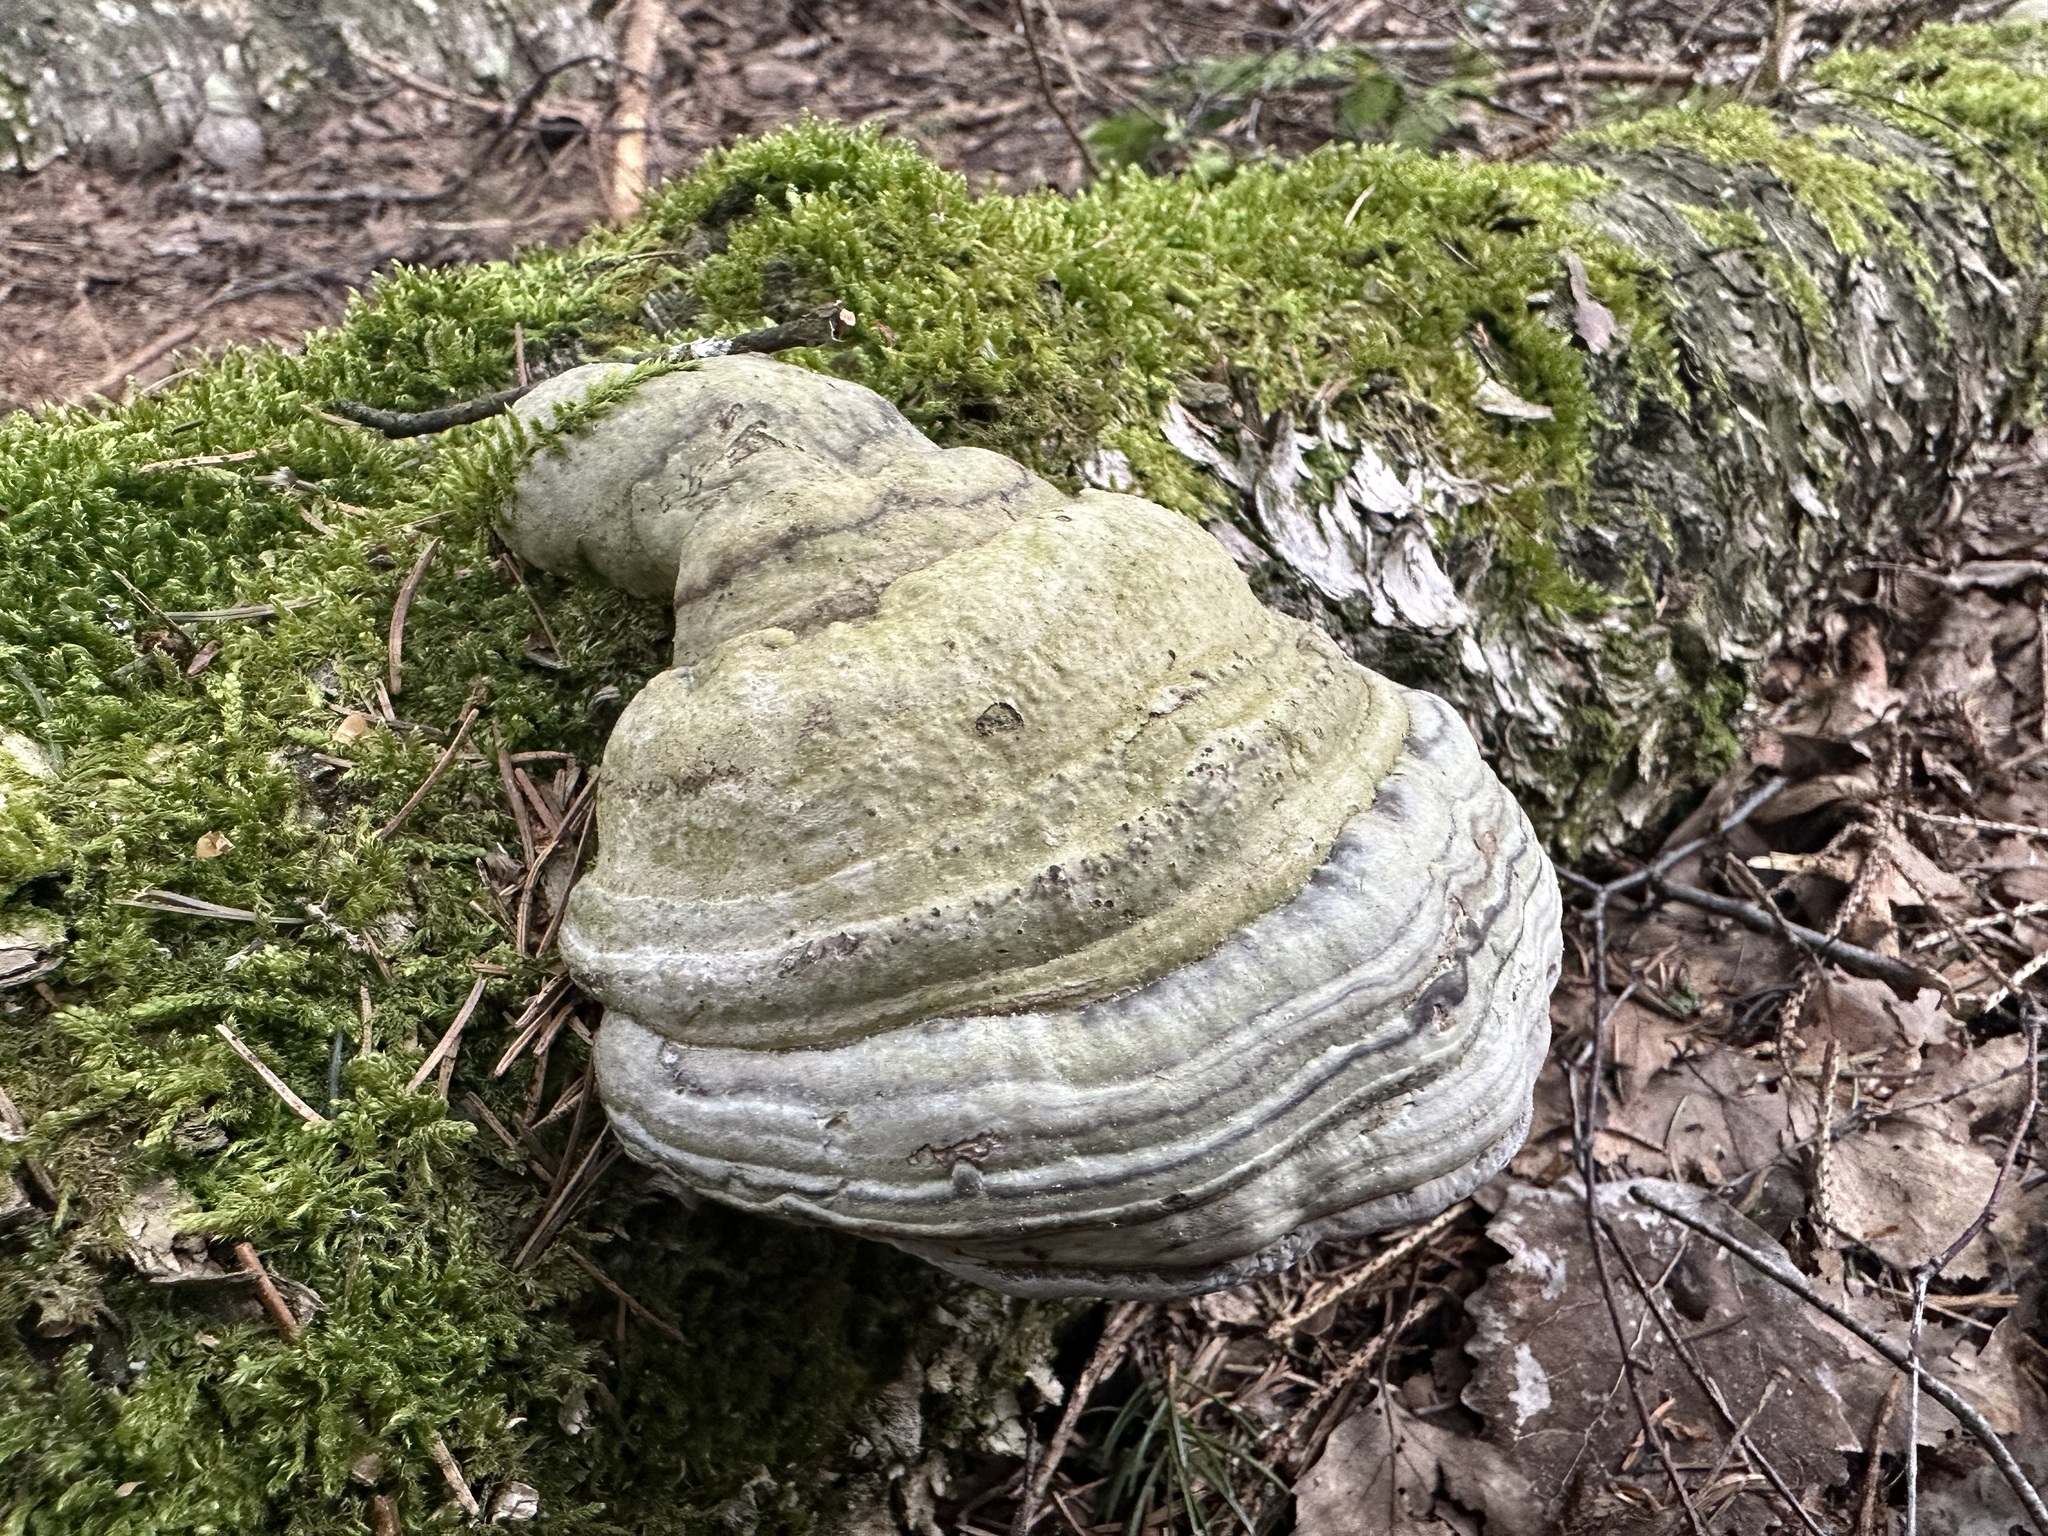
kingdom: Fungi
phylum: Basidiomycota
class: Agaricomycetes
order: Polyporales
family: Polyporaceae
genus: Fomes
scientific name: Fomes fomentarius
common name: Hoof fungus
